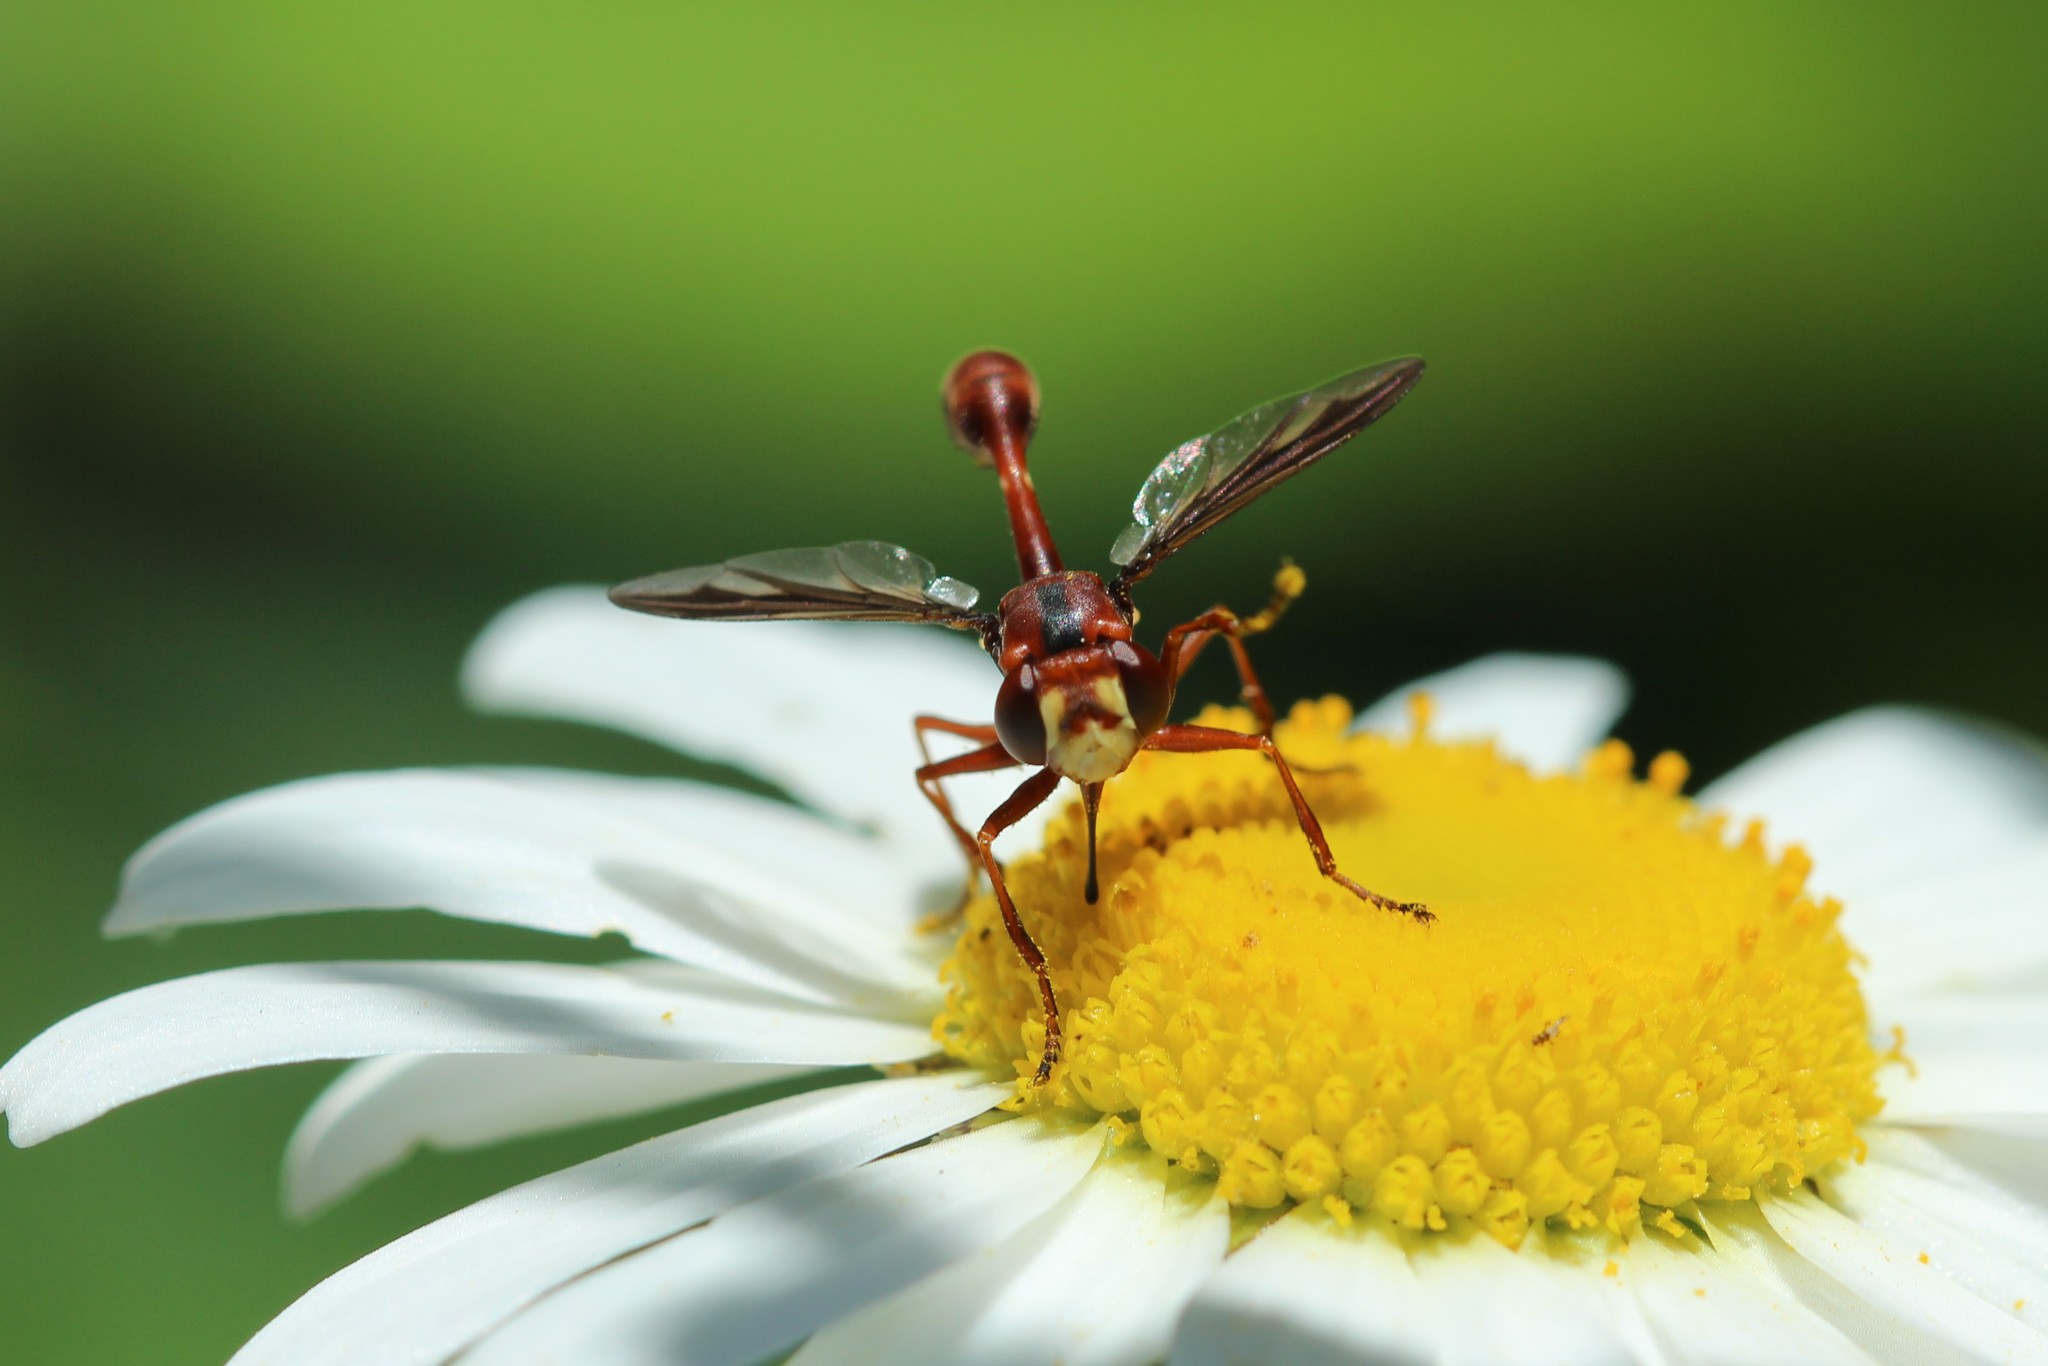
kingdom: Animalia
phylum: Arthropoda
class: Insecta
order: Diptera
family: Conopidae
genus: Physocephala
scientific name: Physocephala burgessi
